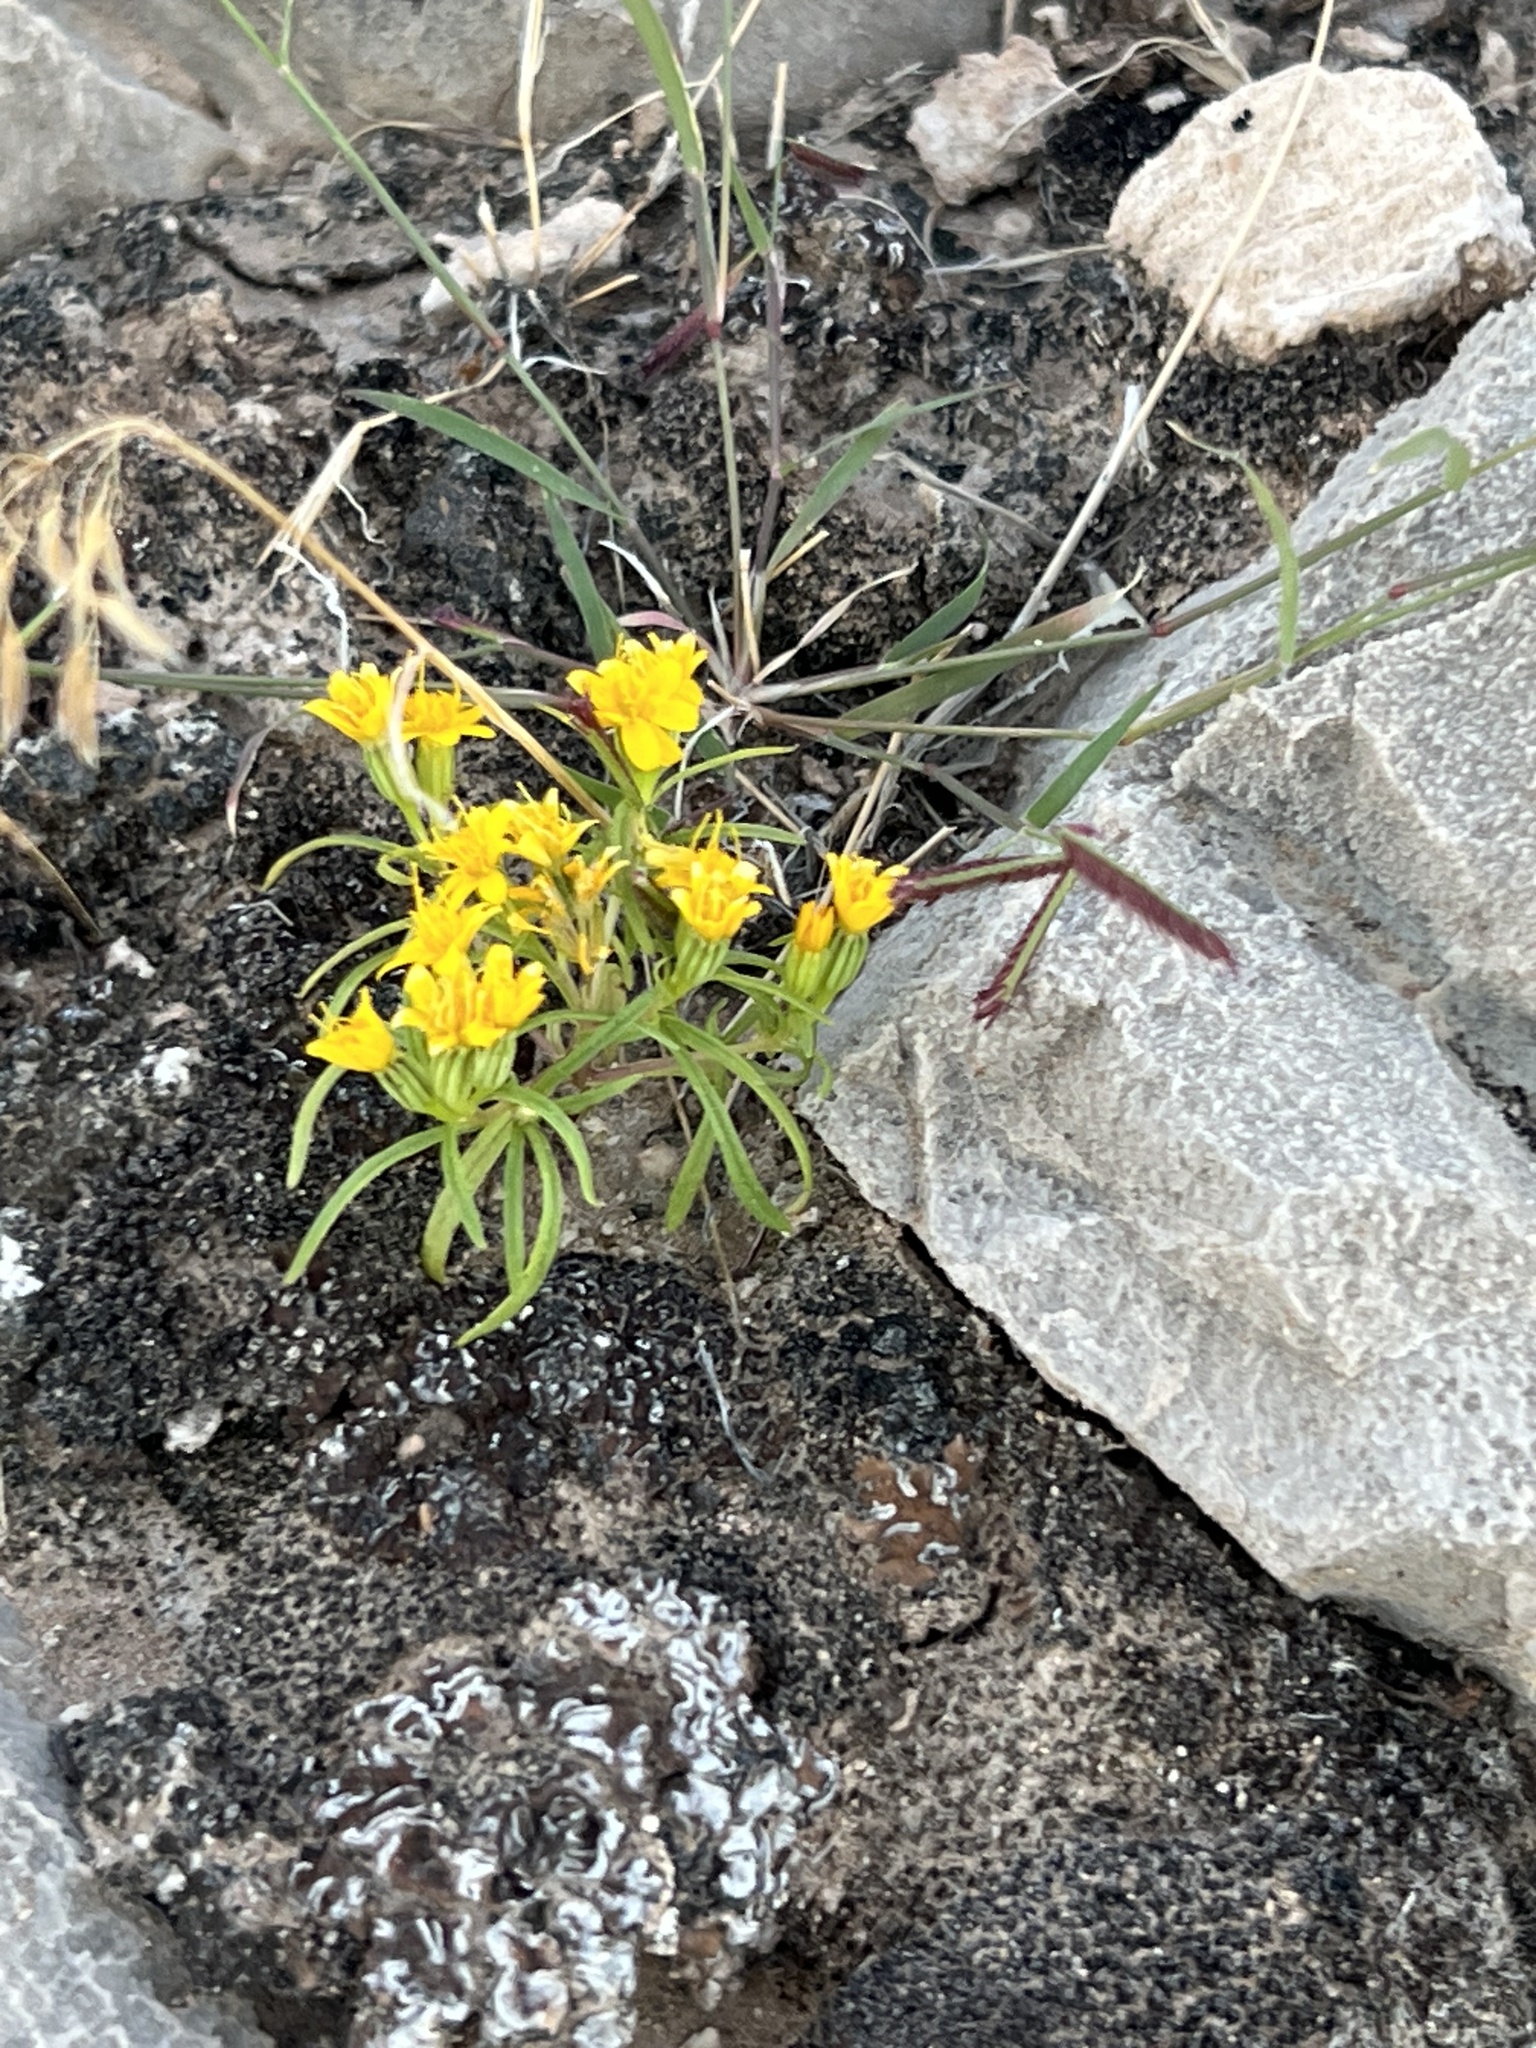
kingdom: Plantae
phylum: Tracheophyta
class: Magnoliopsida
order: Asterales
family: Asteraceae
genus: Pectis
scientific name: Pectis papposa
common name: Many-bristle chinchweed
